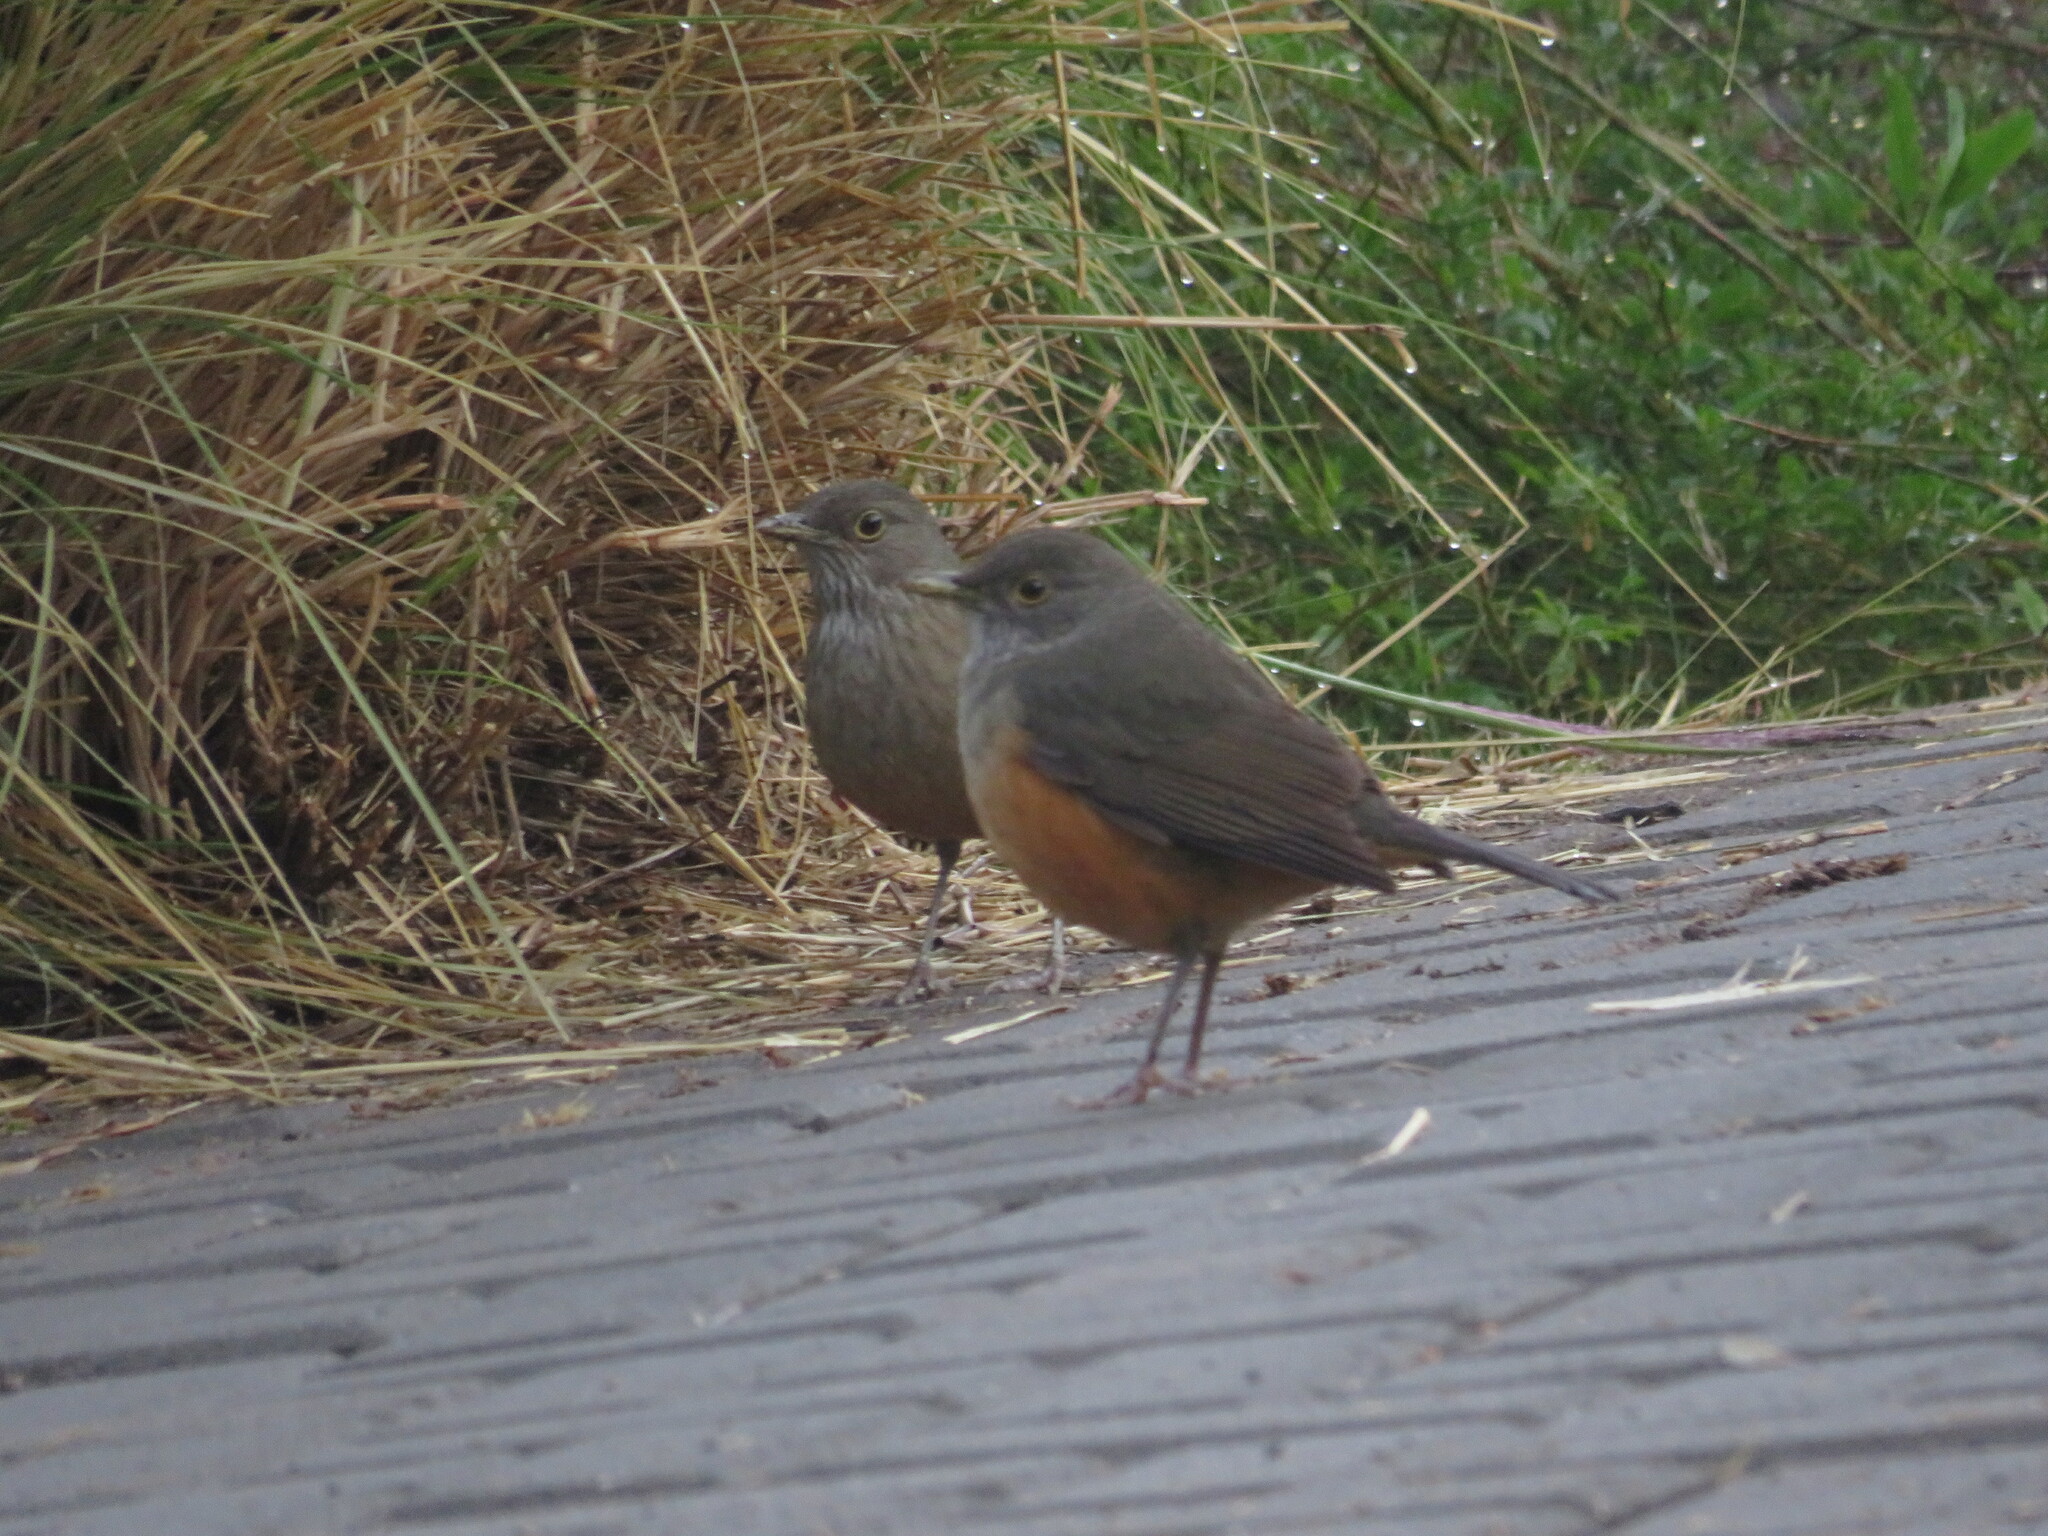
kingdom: Animalia
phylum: Chordata
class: Aves
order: Passeriformes
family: Turdidae
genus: Turdus
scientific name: Turdus rufiventris
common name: Rufous-bellied thrush
